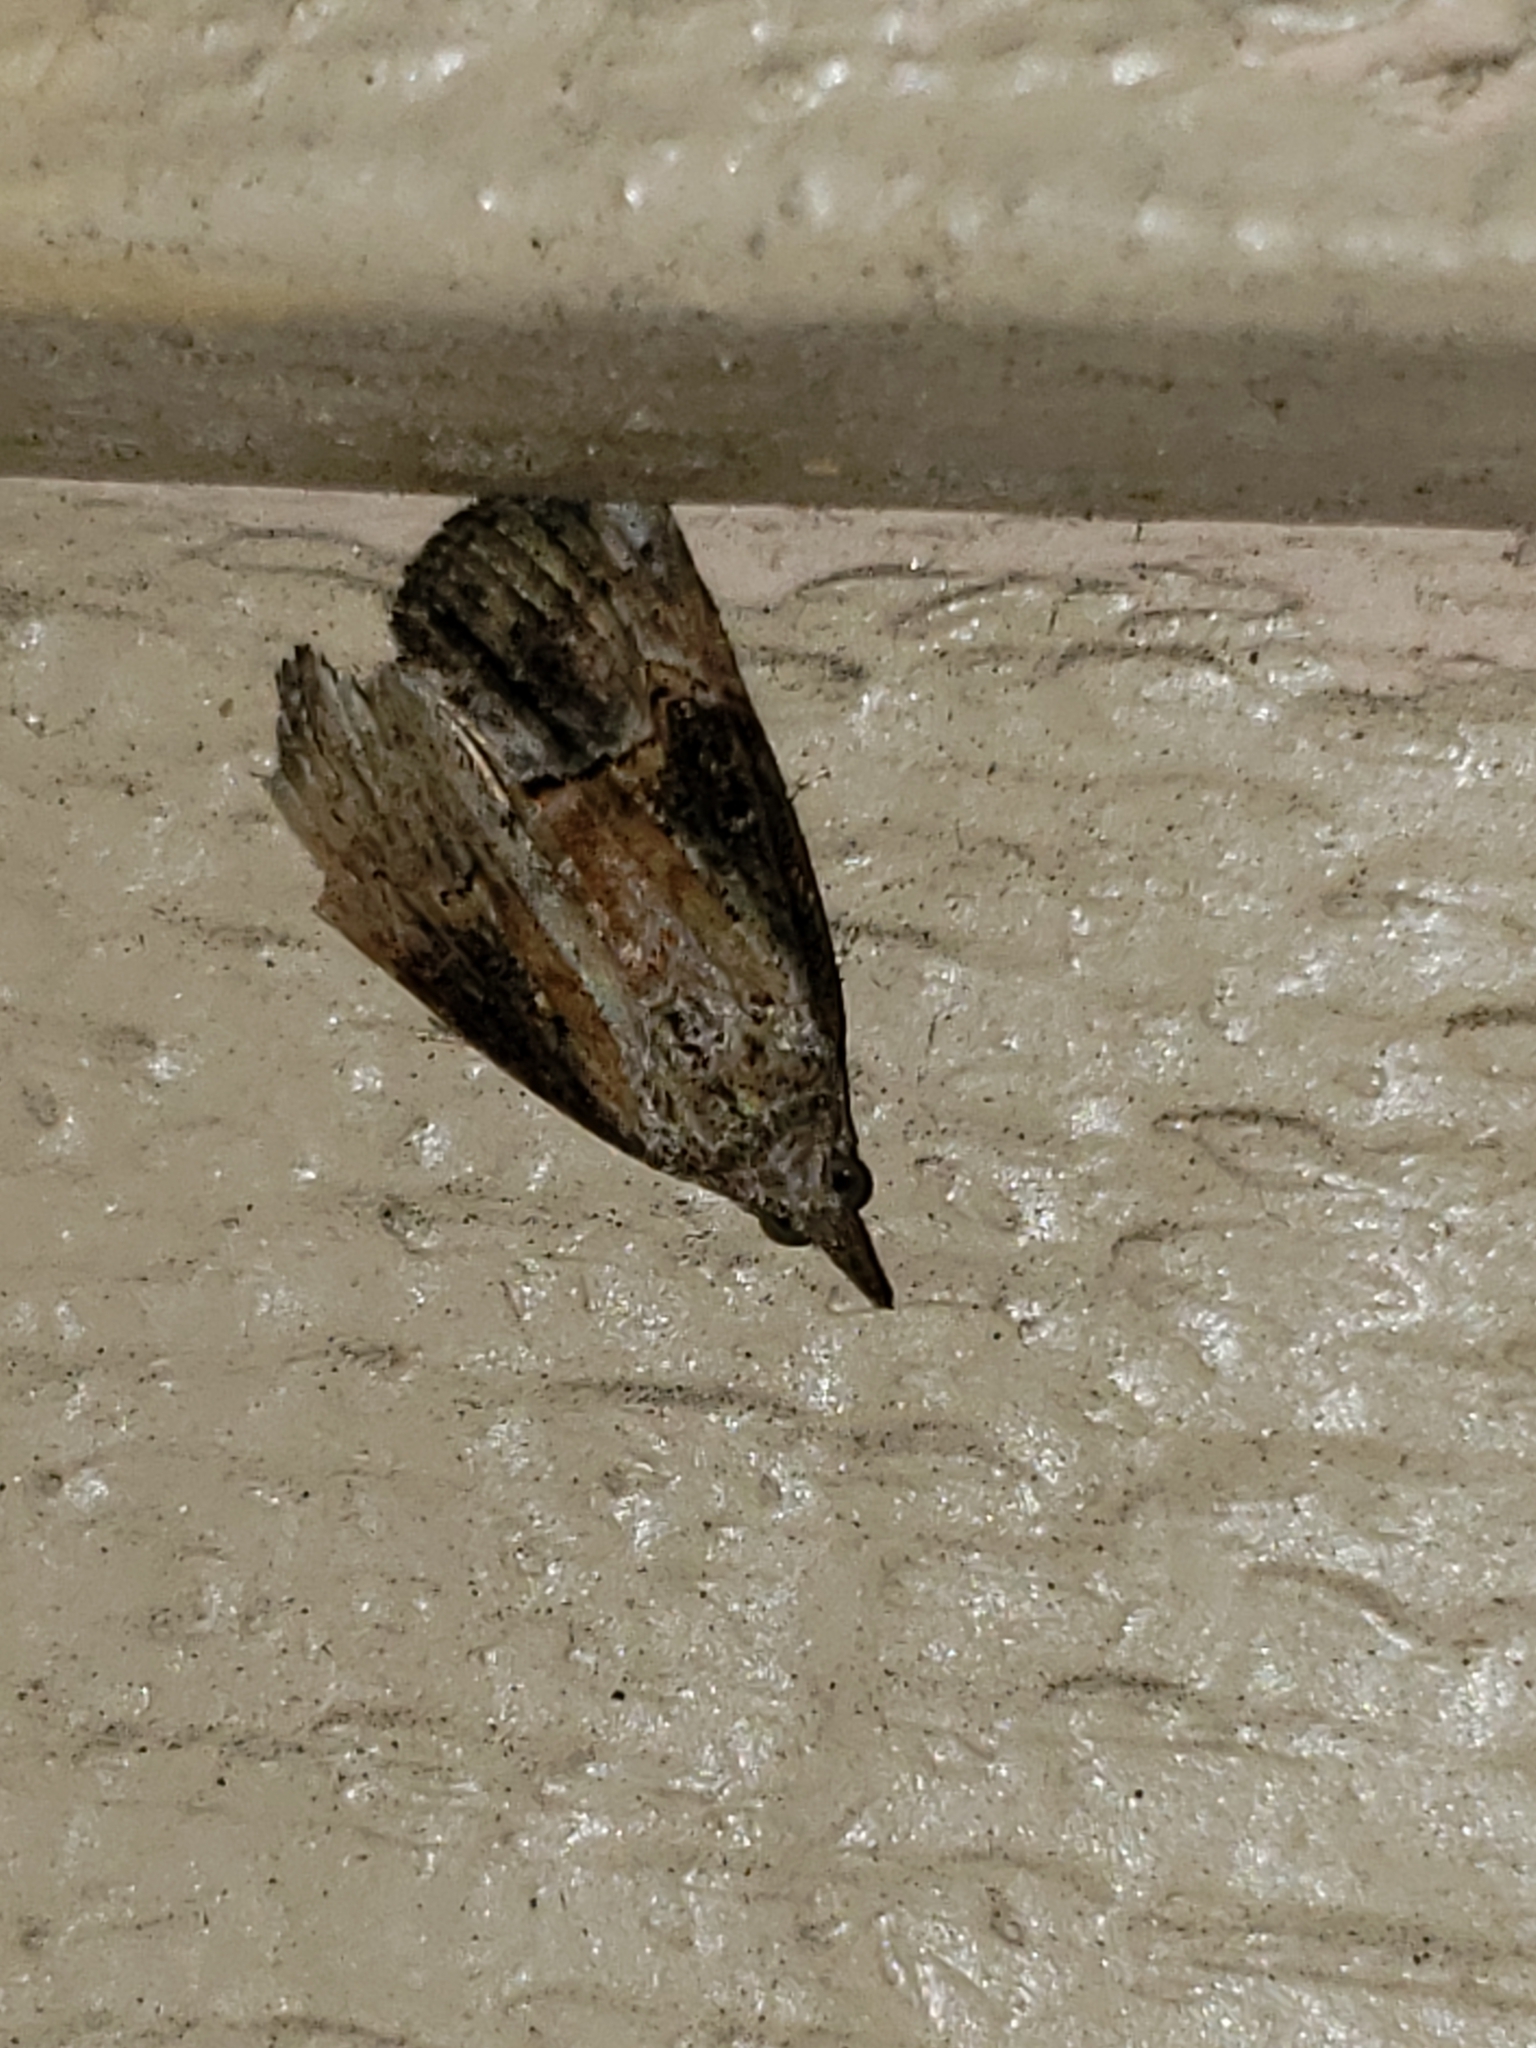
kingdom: Animalia
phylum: Arthropoda
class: Insecta
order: Lepidoptera
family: Erebidae
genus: Hypena
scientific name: Hypena scabra
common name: Green cloverworm
